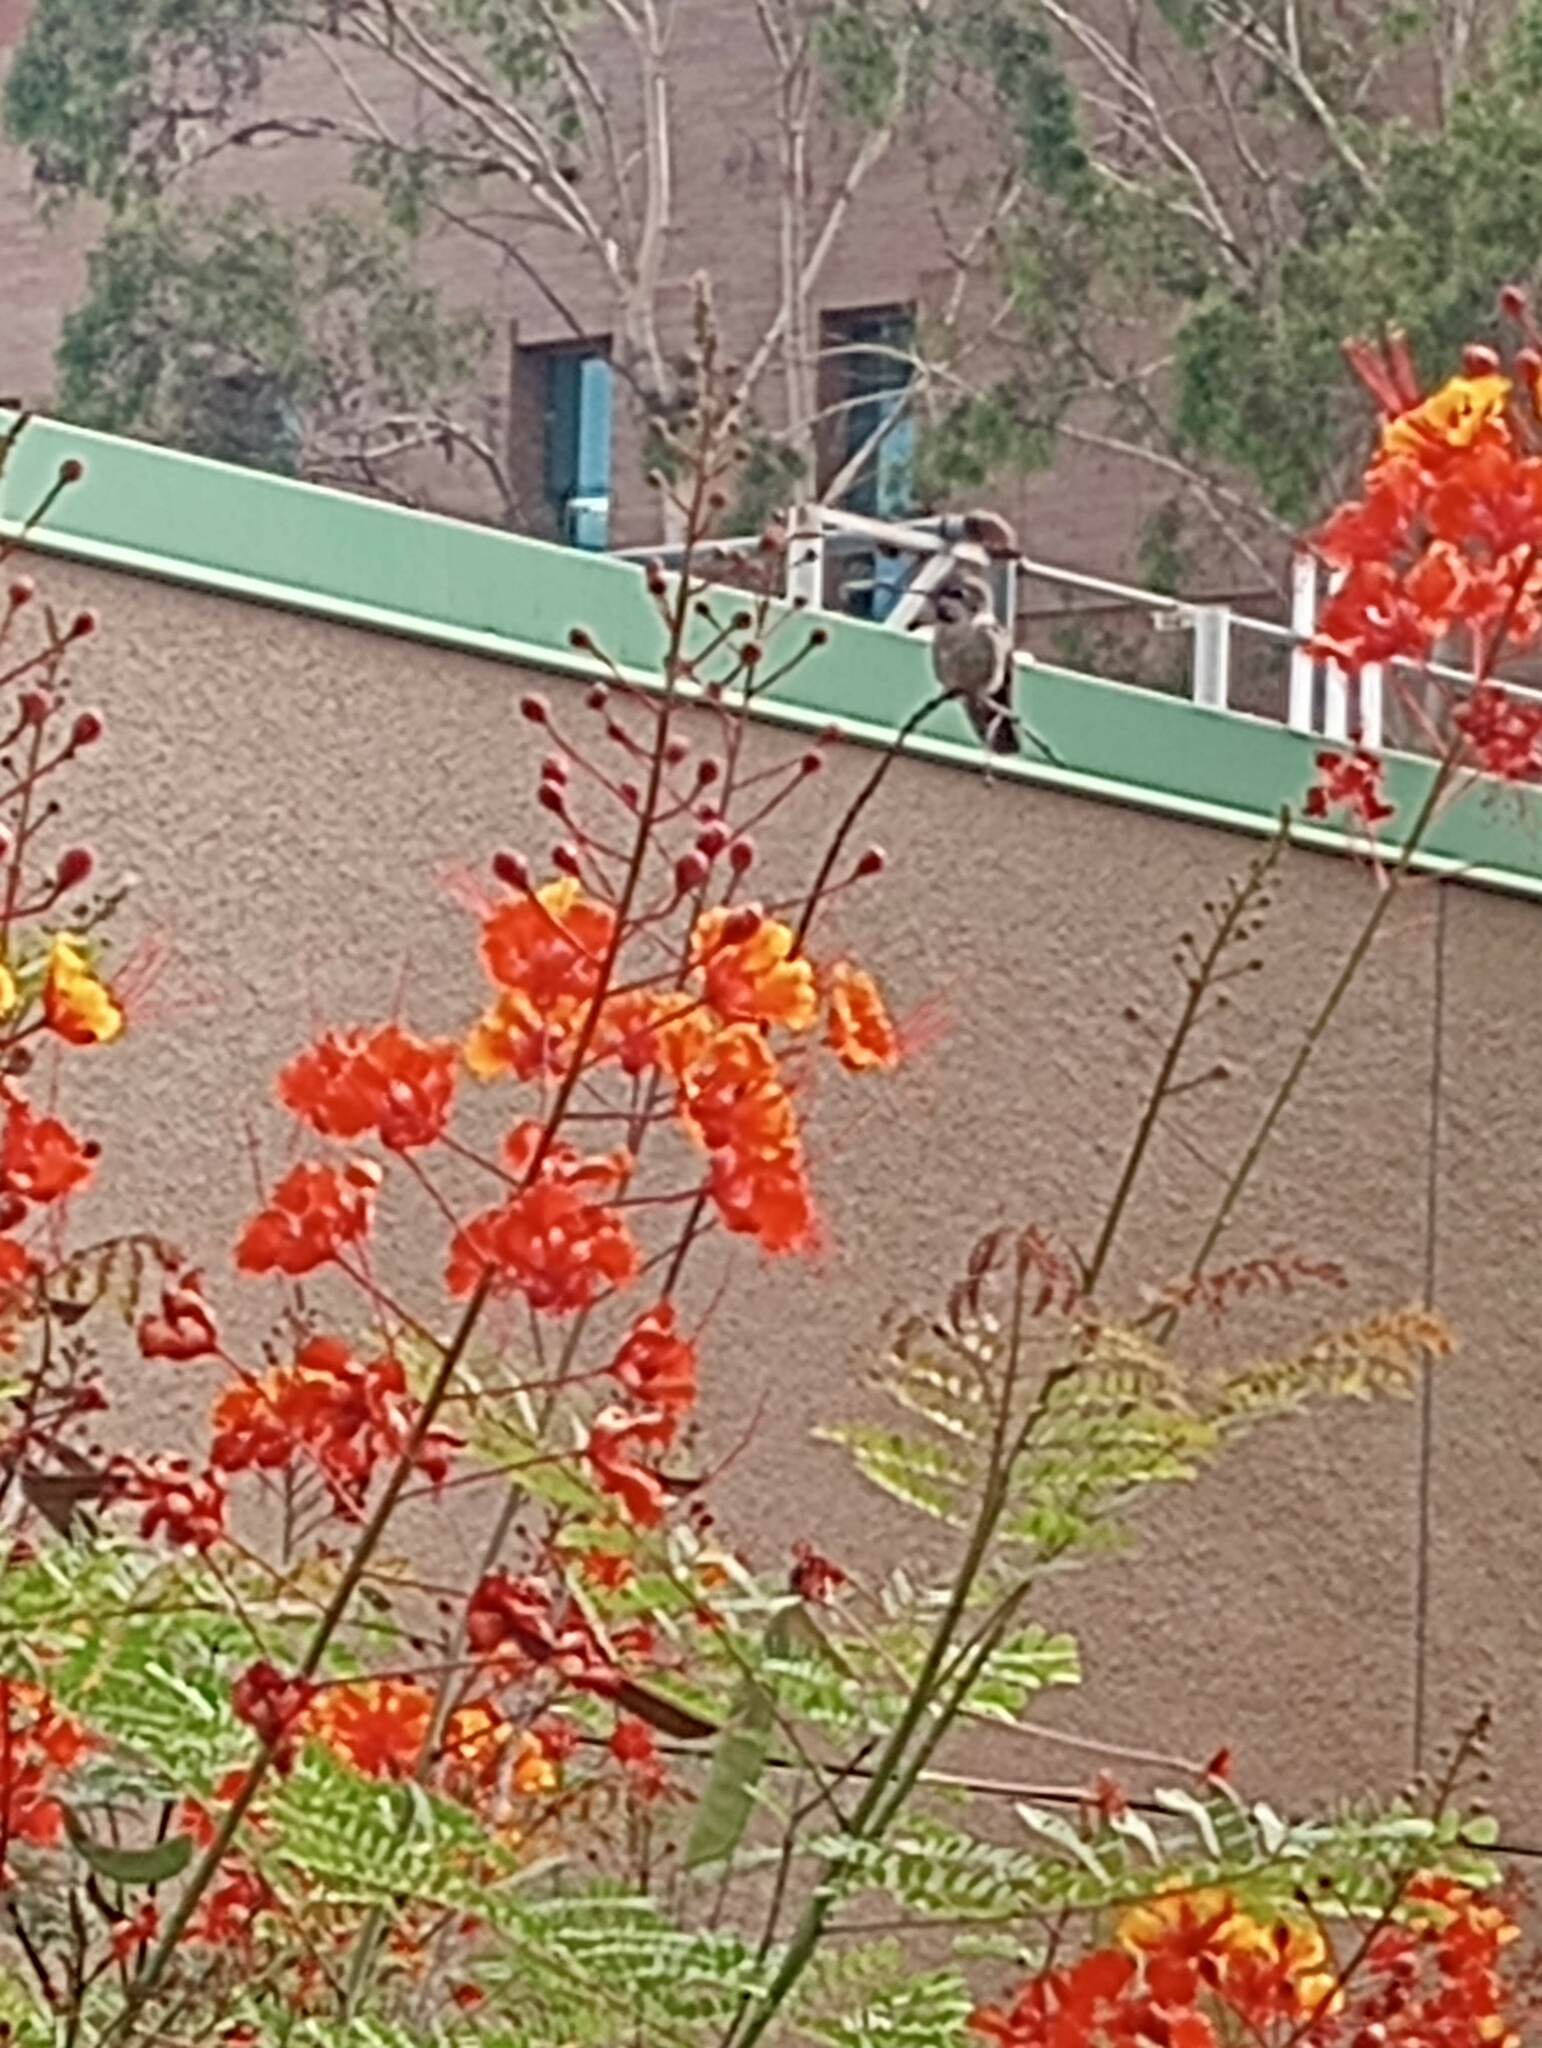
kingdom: Animalia
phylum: Chordata
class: Aves
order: Apodiformes
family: Trochilidae
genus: Calypte
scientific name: Calypte anna
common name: Anna's hummingbird
